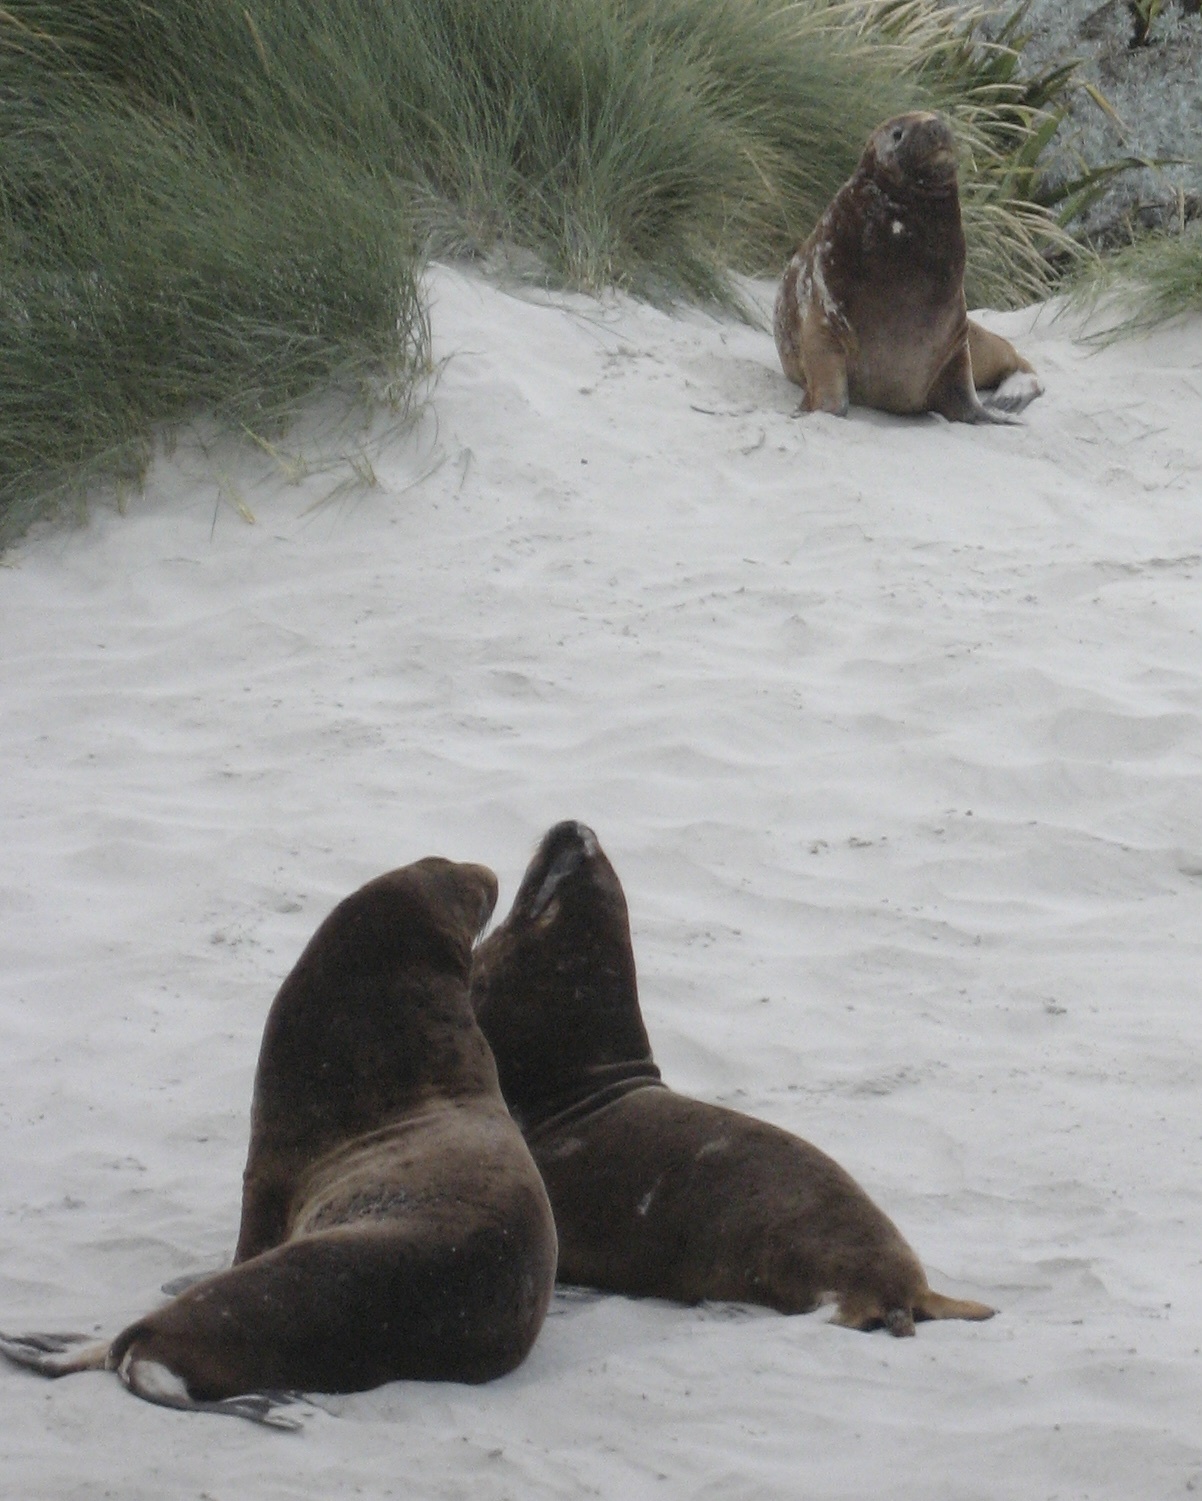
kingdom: Animalia
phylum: Chordata
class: Mammalia
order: Carnivora
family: Otariidae
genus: Phocarctos
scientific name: Phocarctos hookeri
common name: New zealand sea lion
